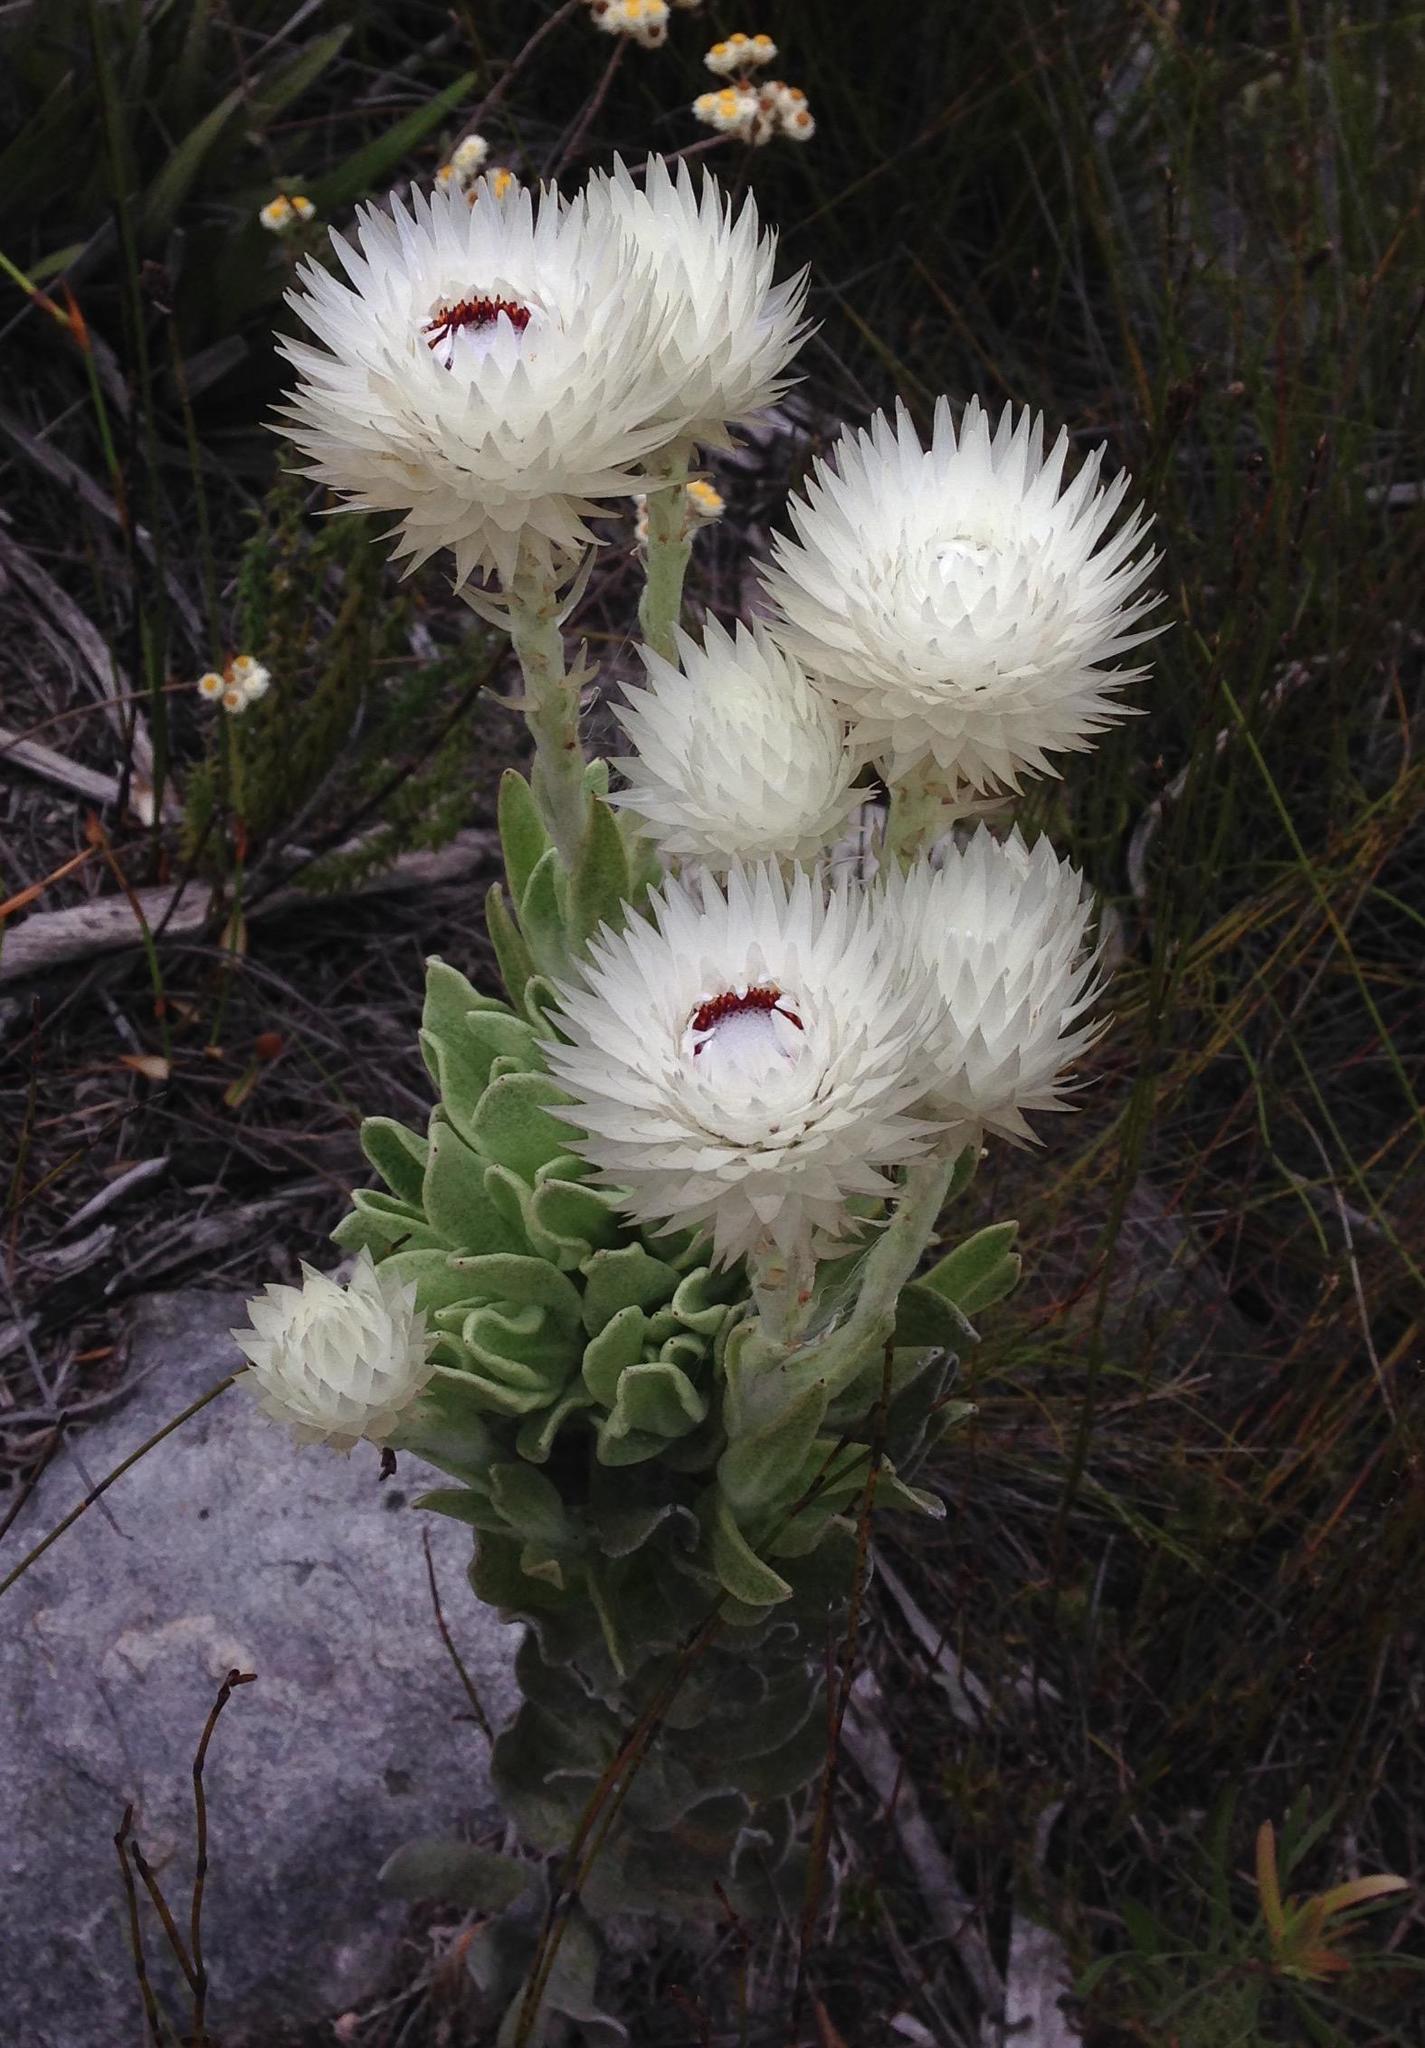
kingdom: Plantae
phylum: Tracheophyta
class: Magnoliopsida
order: Asterales
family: Asteraceae
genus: Syncarpha
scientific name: Syncarpha vestita
